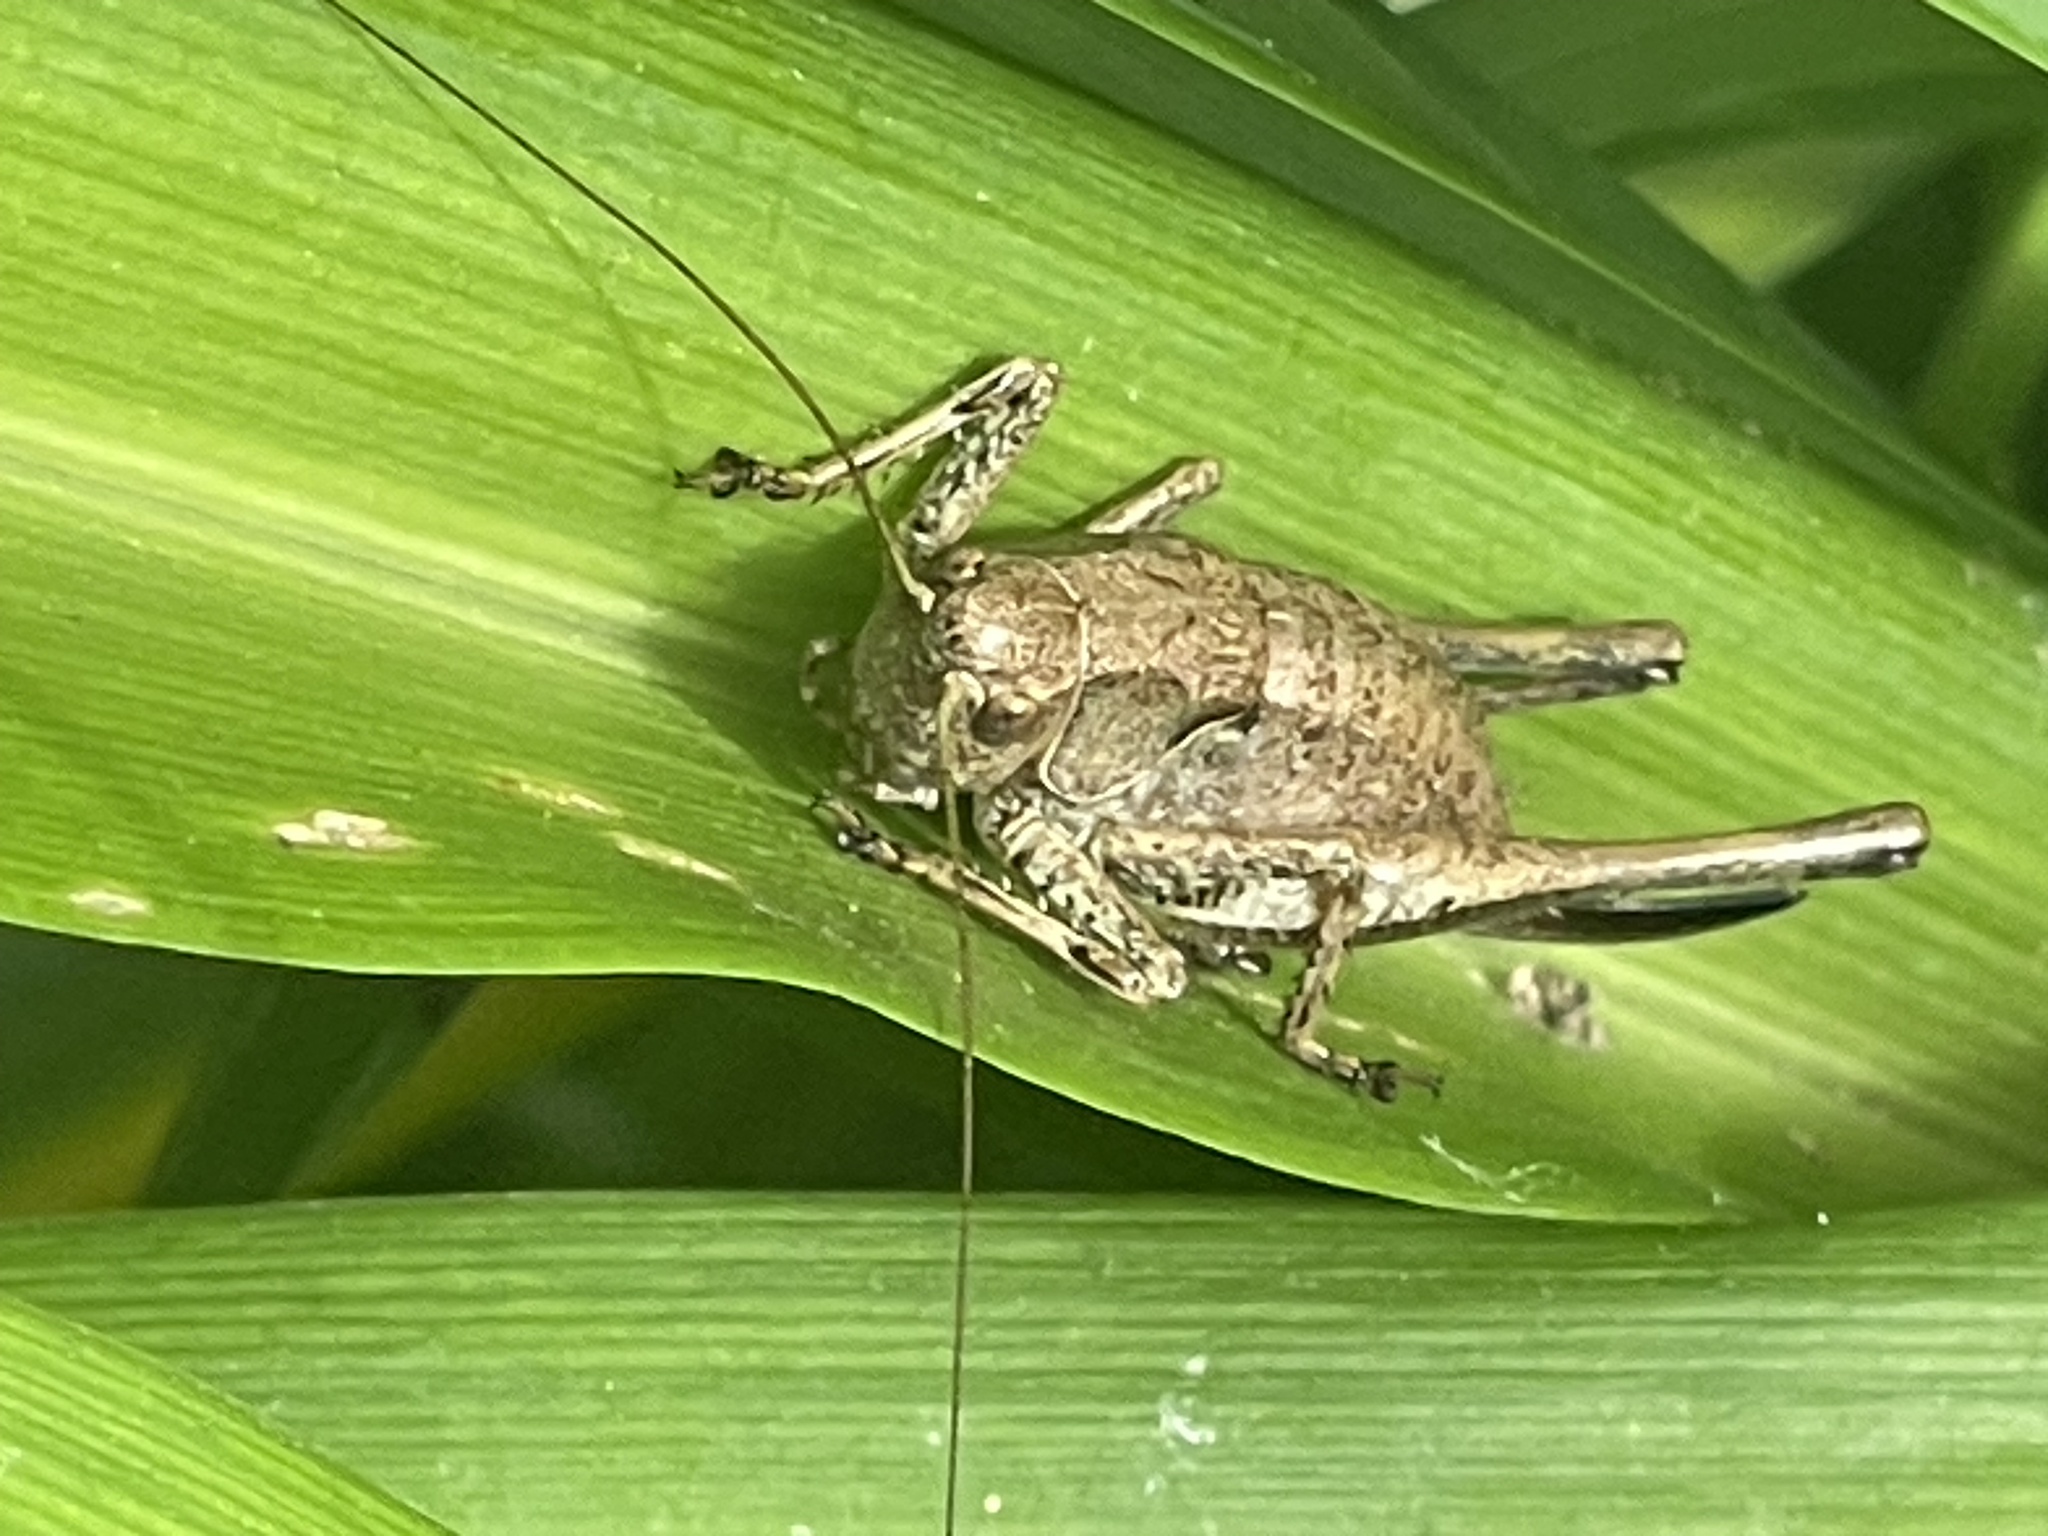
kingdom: Animalia
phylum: Arthropoda
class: Insecta
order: Orthoptera
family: Tettigoniidae
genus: Pholidoptera
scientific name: Pholidoptera griseoaptera
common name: Dark bush-cricket
